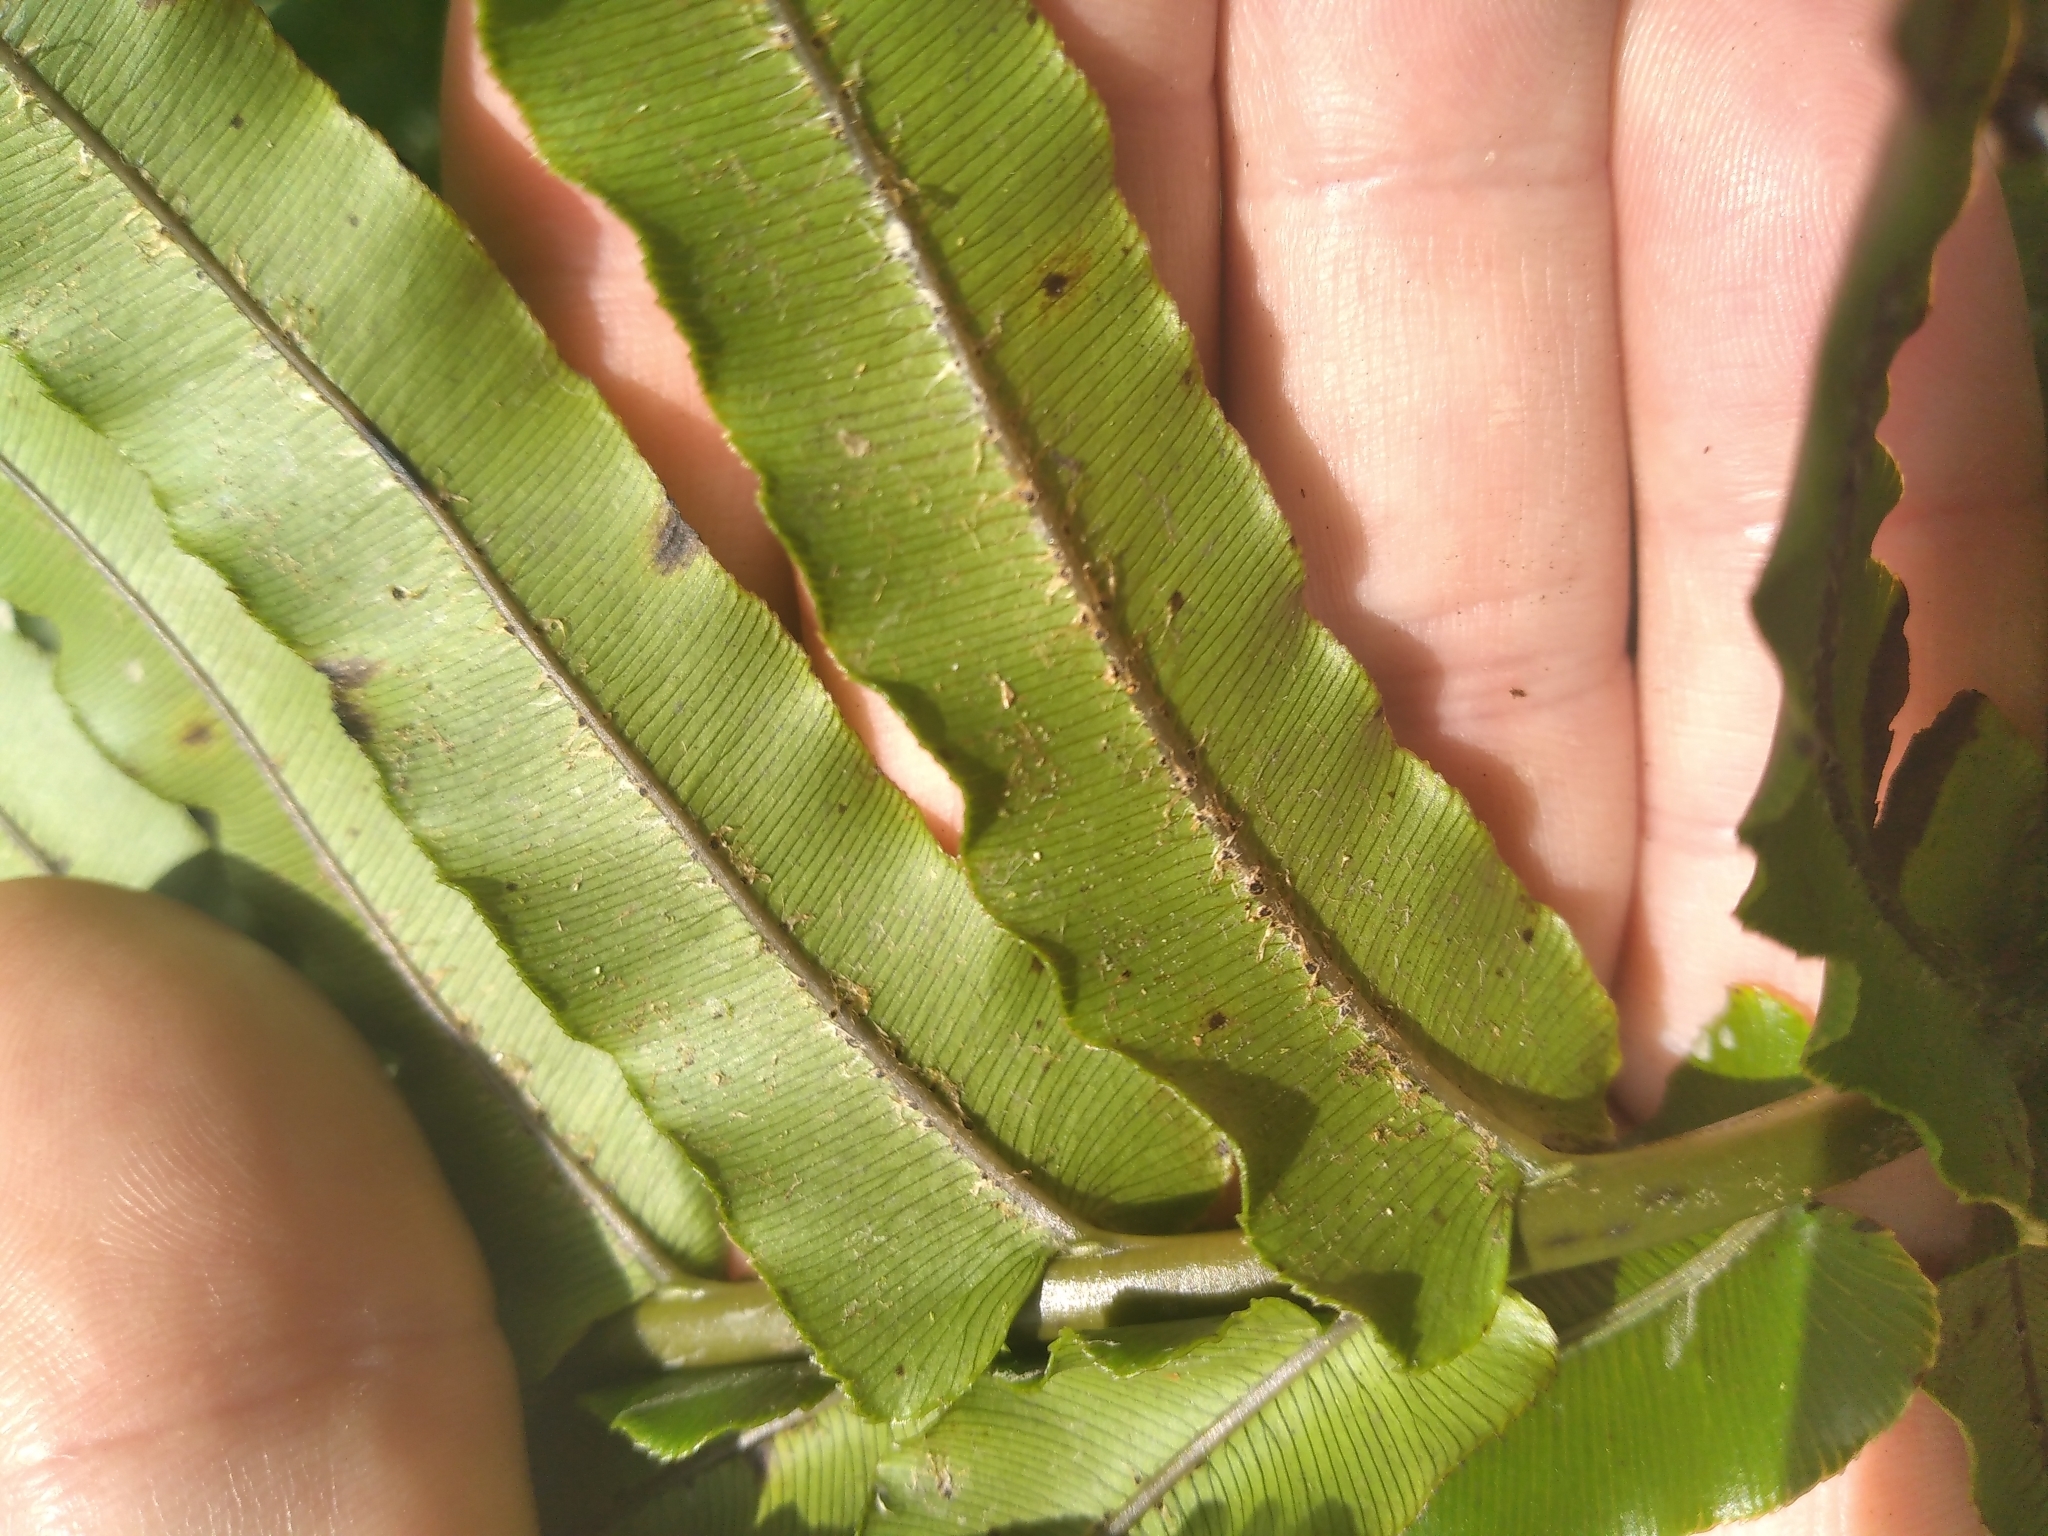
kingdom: Plantae
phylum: Tracheophyta
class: Polypodiopsida
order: Polypodiales
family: Blechnaceae
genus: Parablechnum
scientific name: Parablechnum novae-zelandiae
